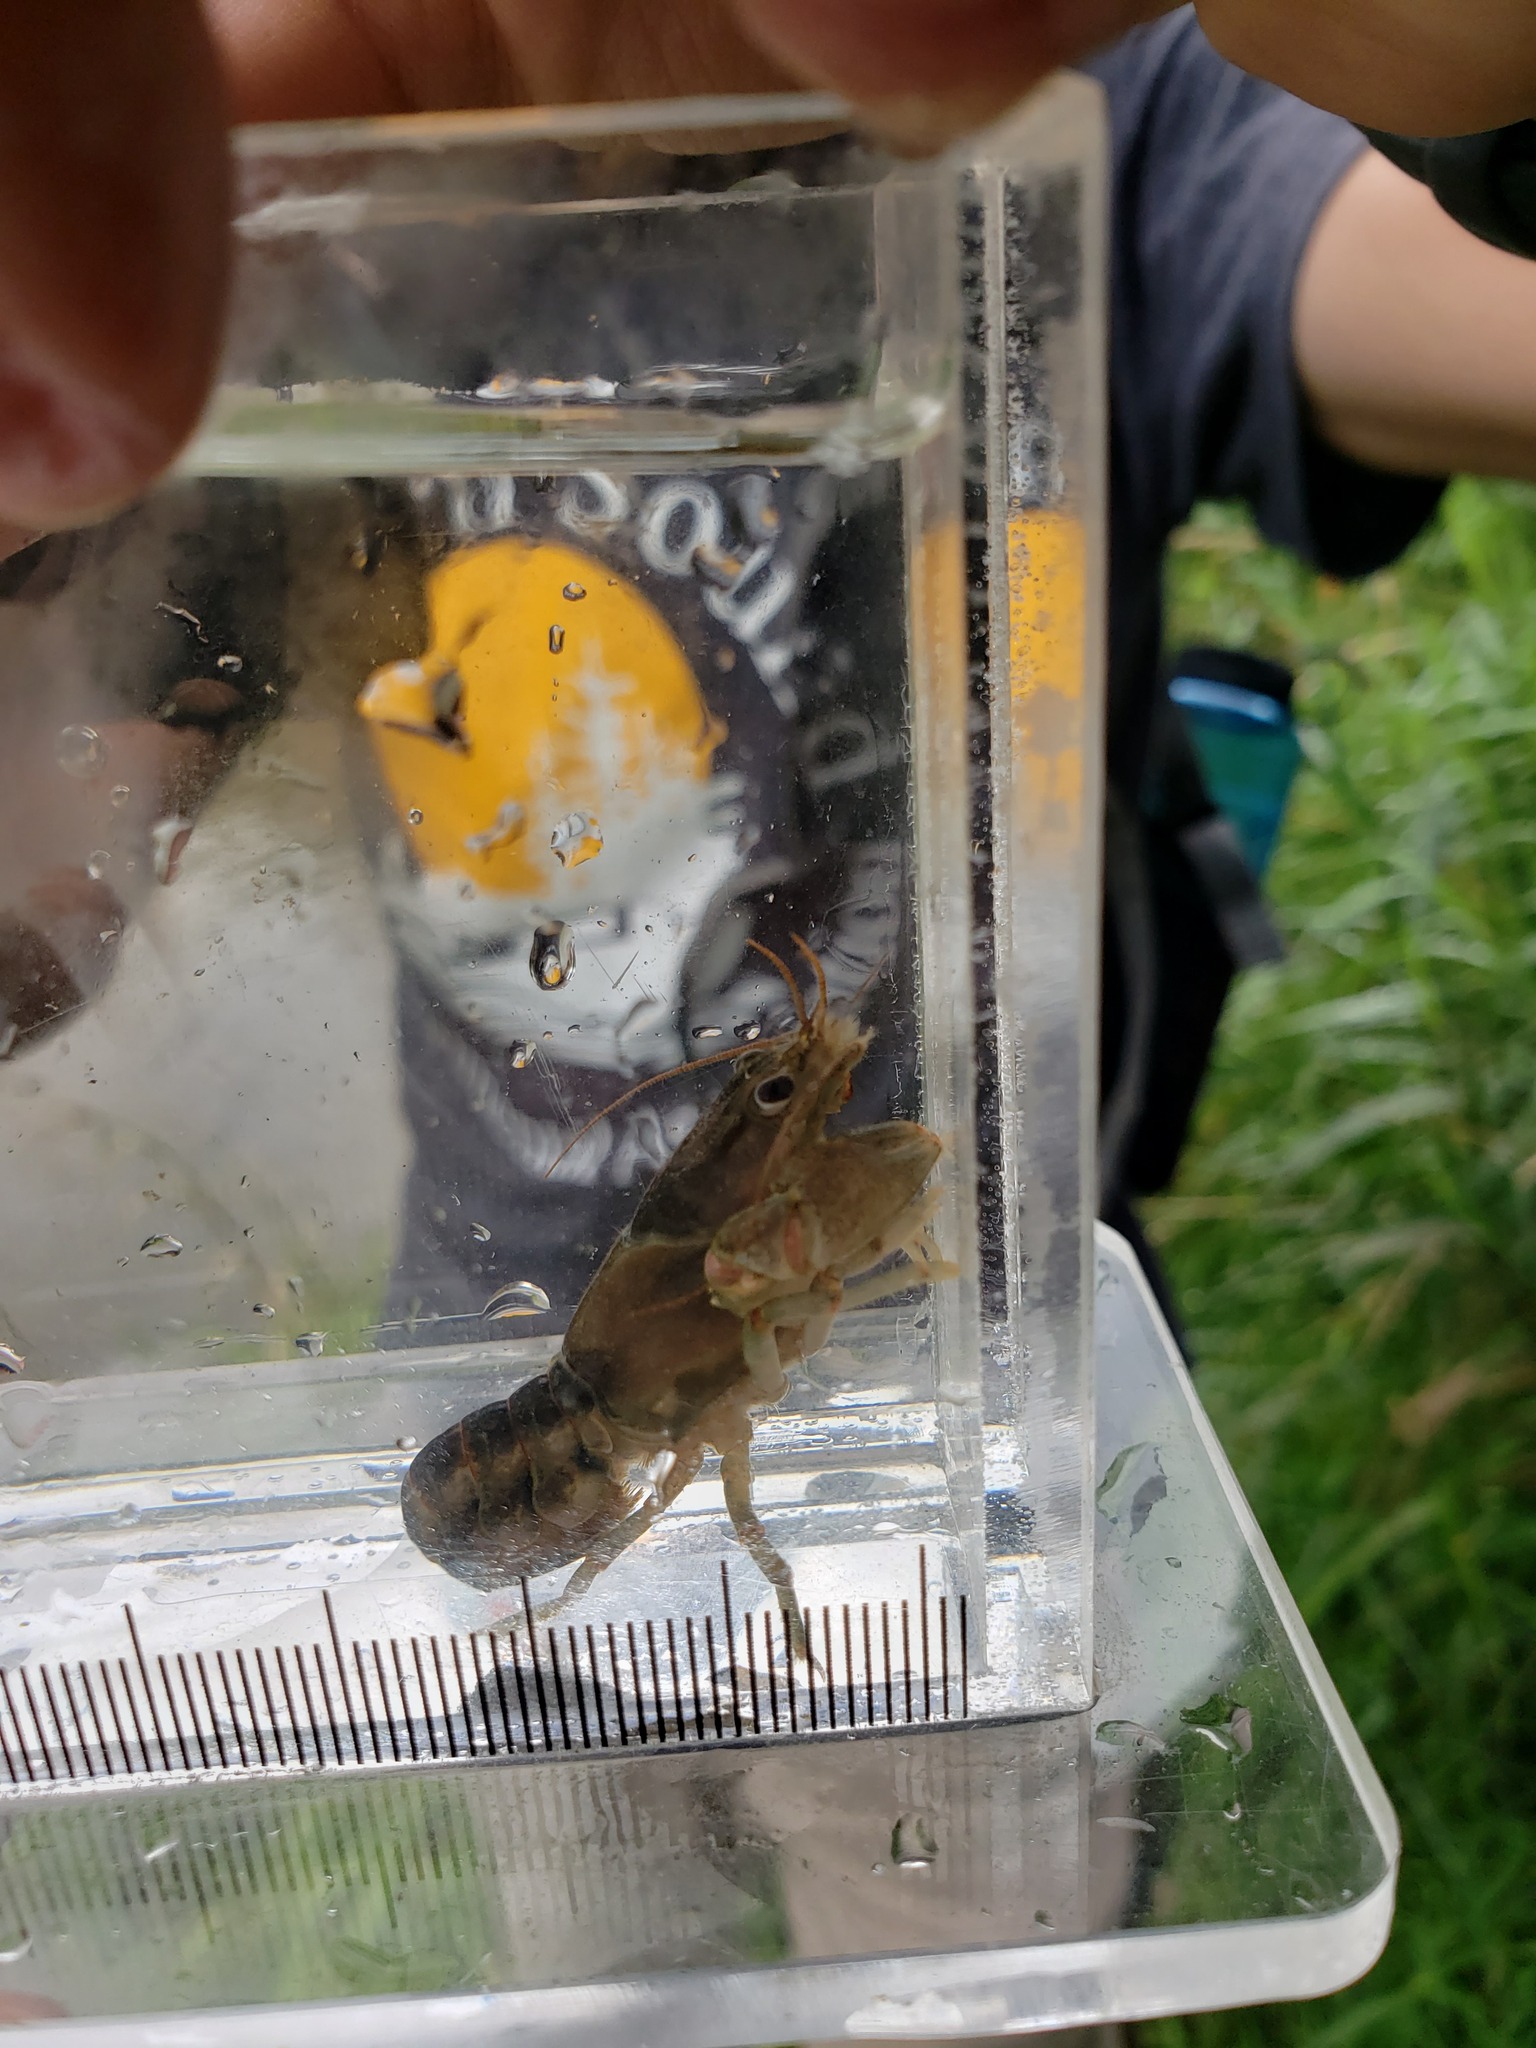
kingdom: Animalia
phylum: Arthropoda
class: Malacostraca
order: Decapoda
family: Cambaridae
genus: Faxonius
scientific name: Faxonius propinquus
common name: Northern clearwater crayfish
